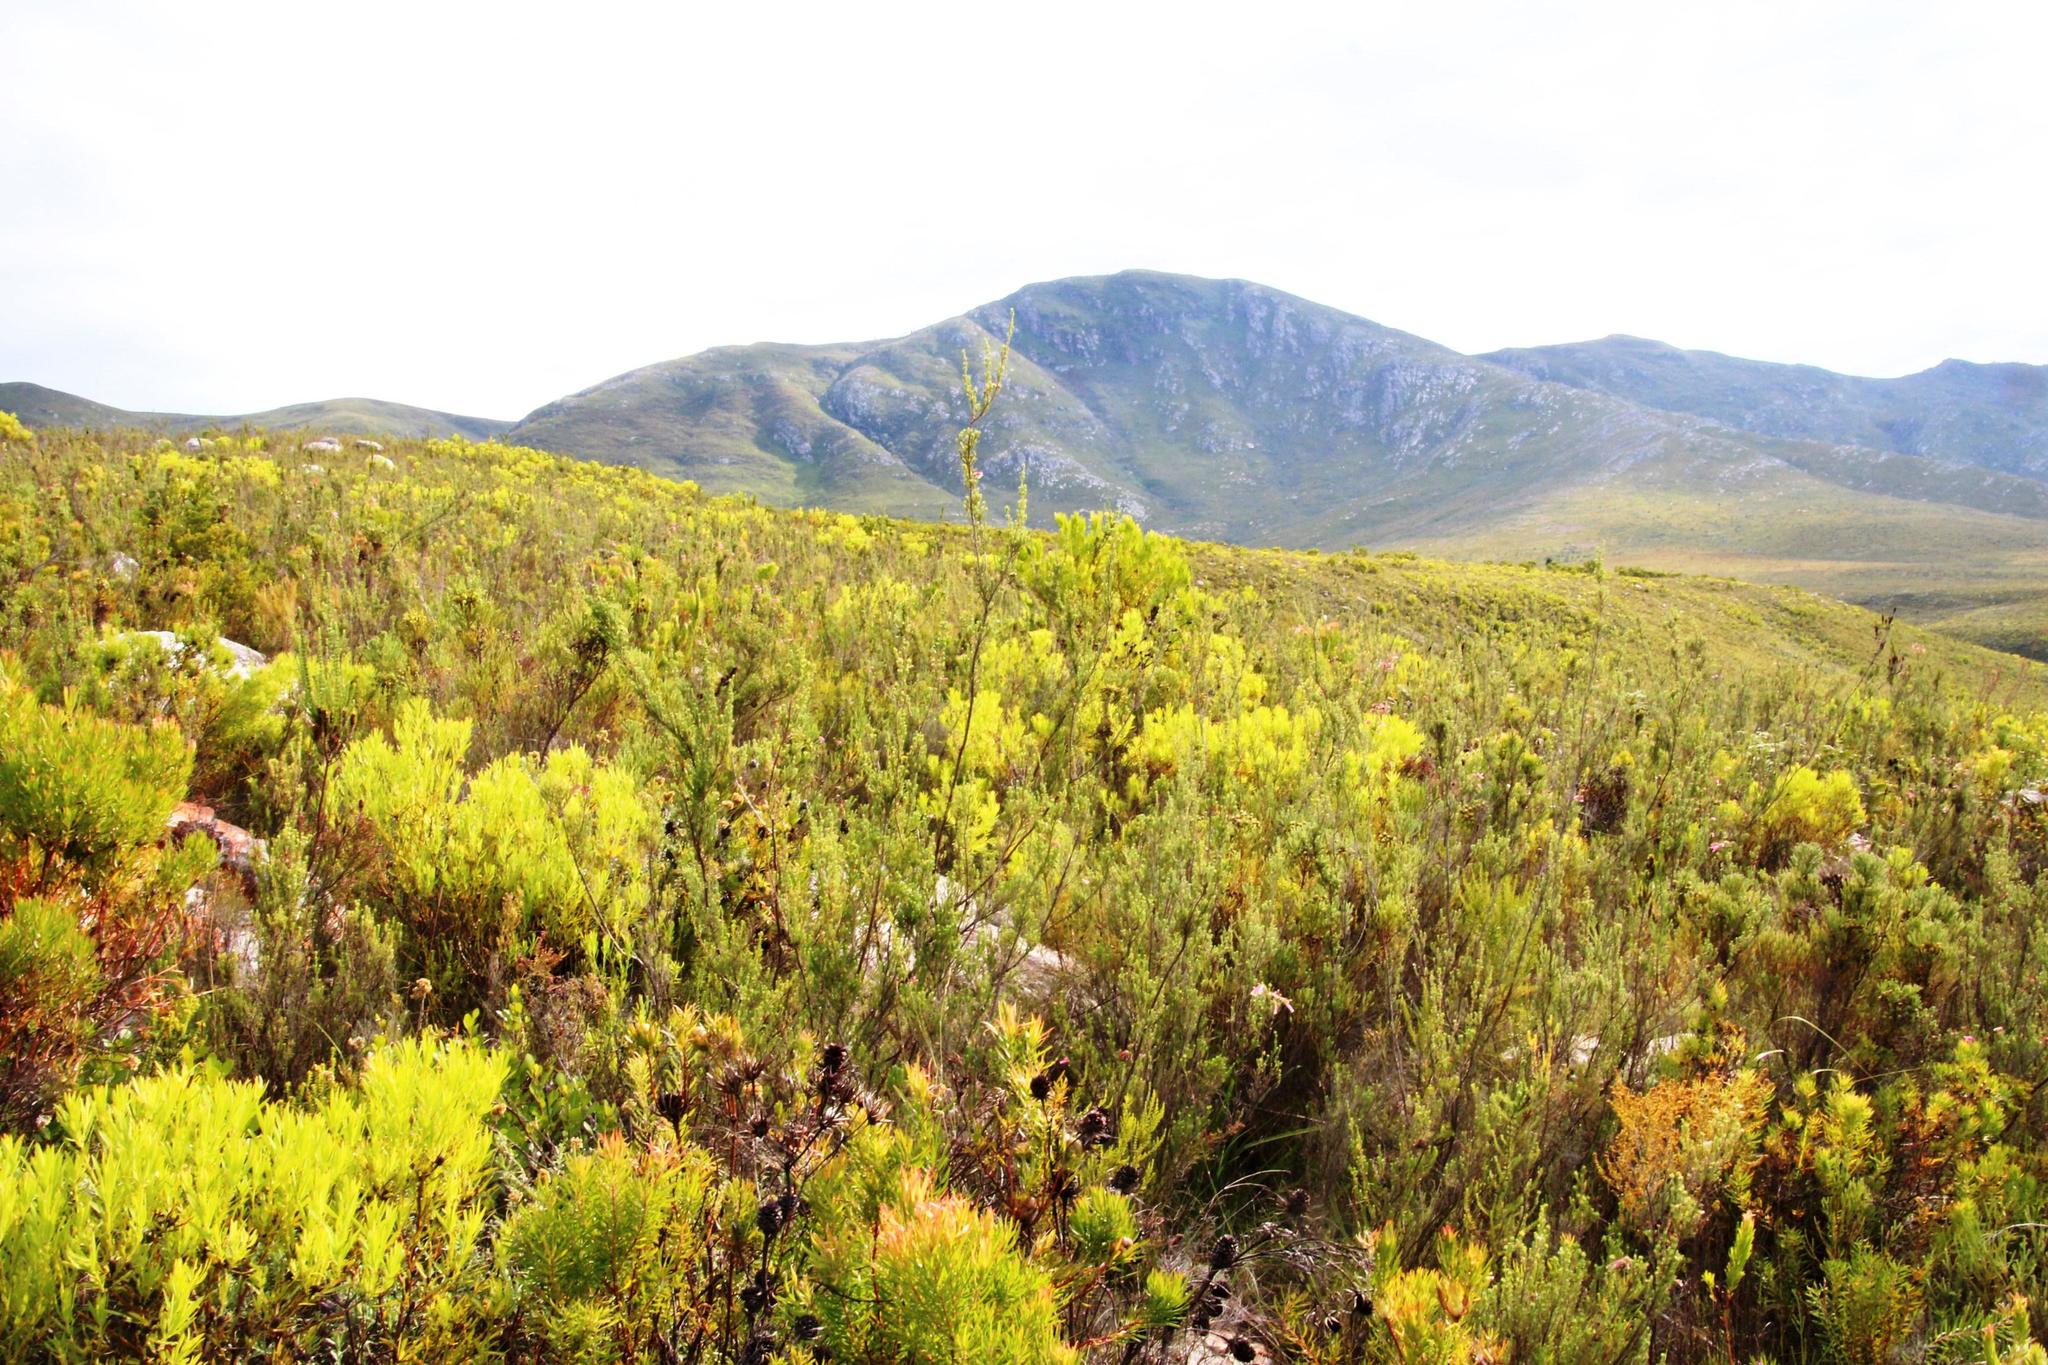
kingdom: Plantae
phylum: Tracheophyta
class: Magnoliopsida
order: Ericales
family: Ericaceae
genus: Erica
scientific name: Erica discolor
